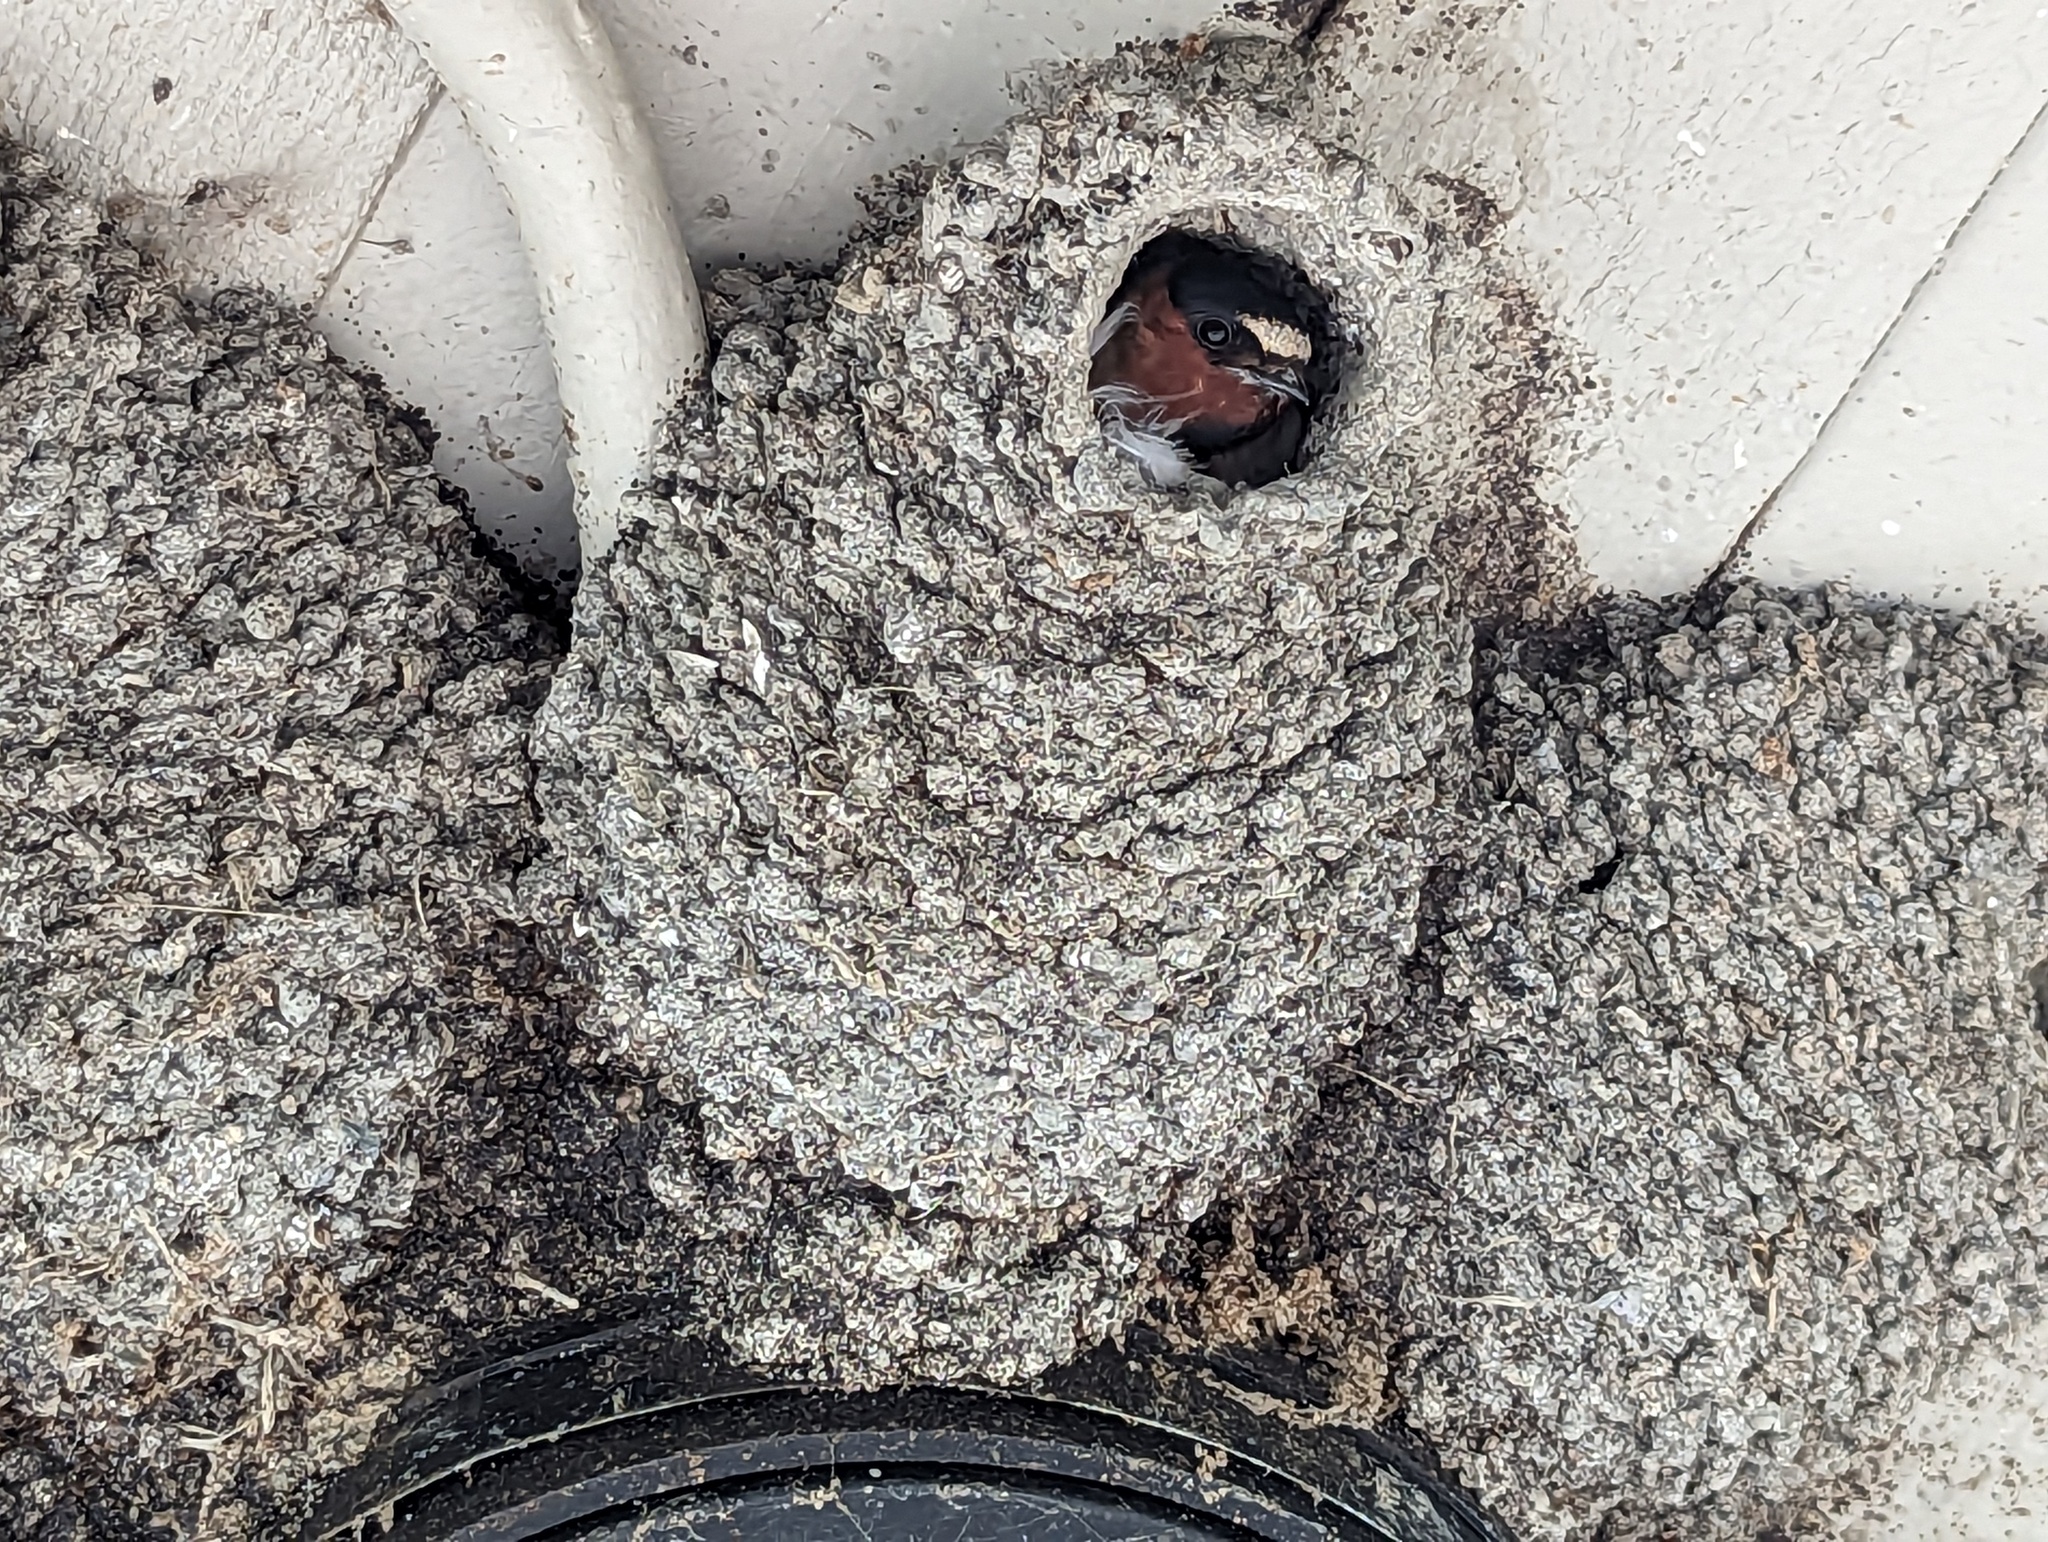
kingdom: Animalia
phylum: Chordata
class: Aves
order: Passeriformes
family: Hirundinidae
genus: Petrochelidon
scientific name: Petrochelidon pyrrhonota
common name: American cliff swallow
